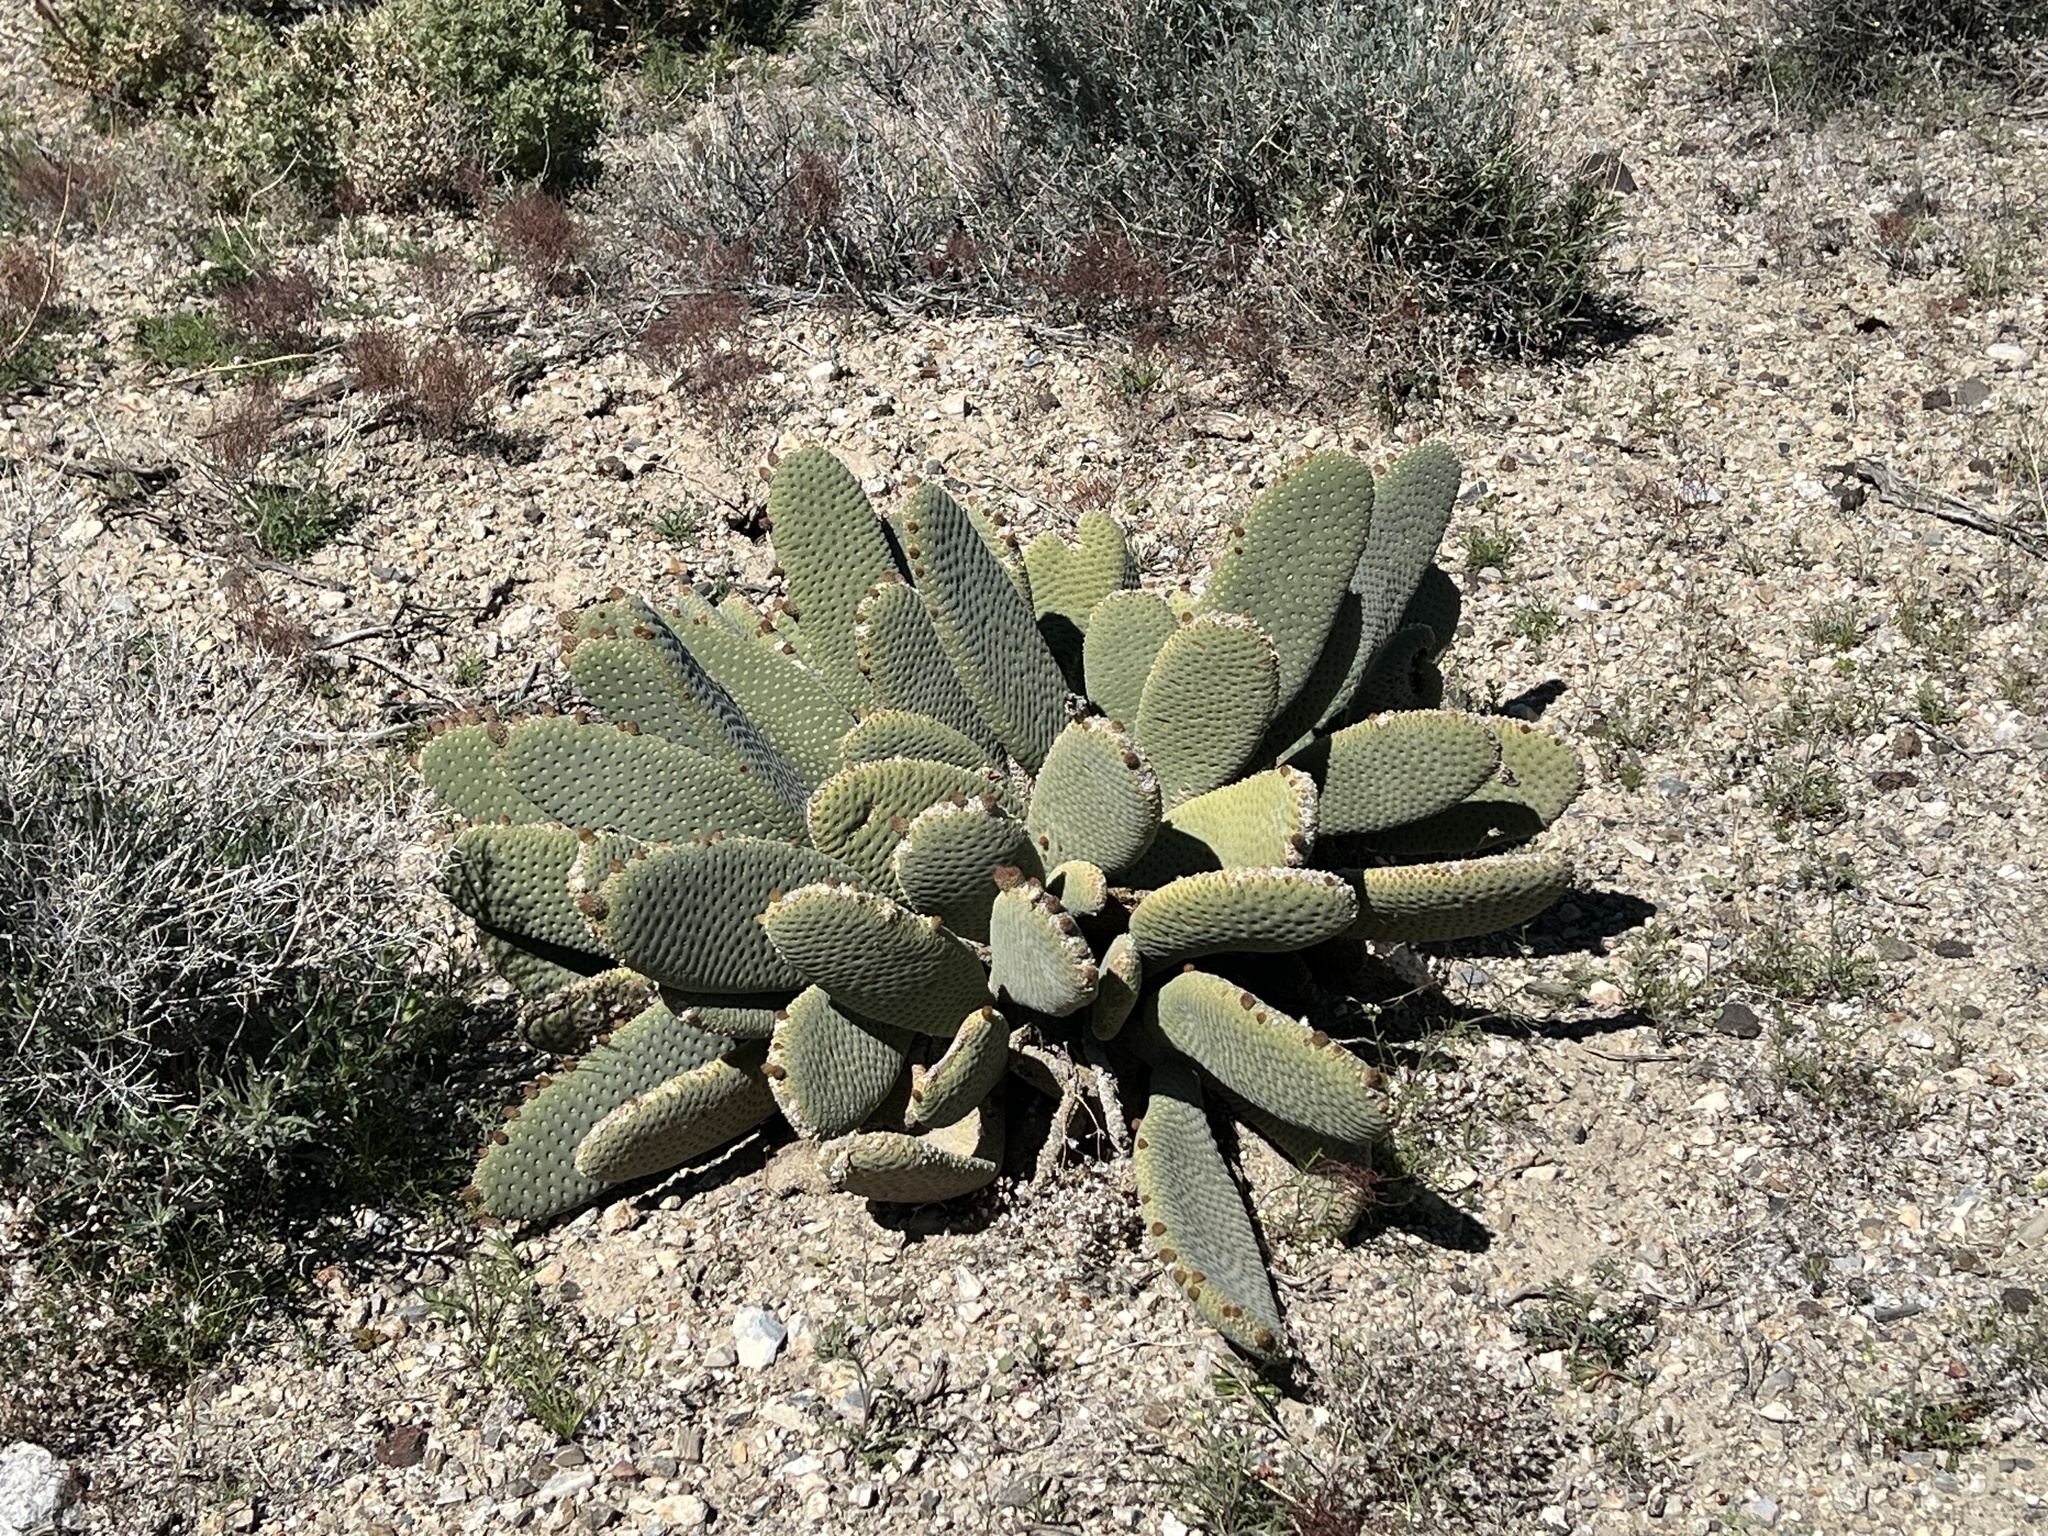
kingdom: Plantae
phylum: Tracheophyta
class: Magnoliopsida
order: Caryophyllales
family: Cactaceae
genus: Opuntia
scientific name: Opuntia basilaris
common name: Beavertail prickly-pear
